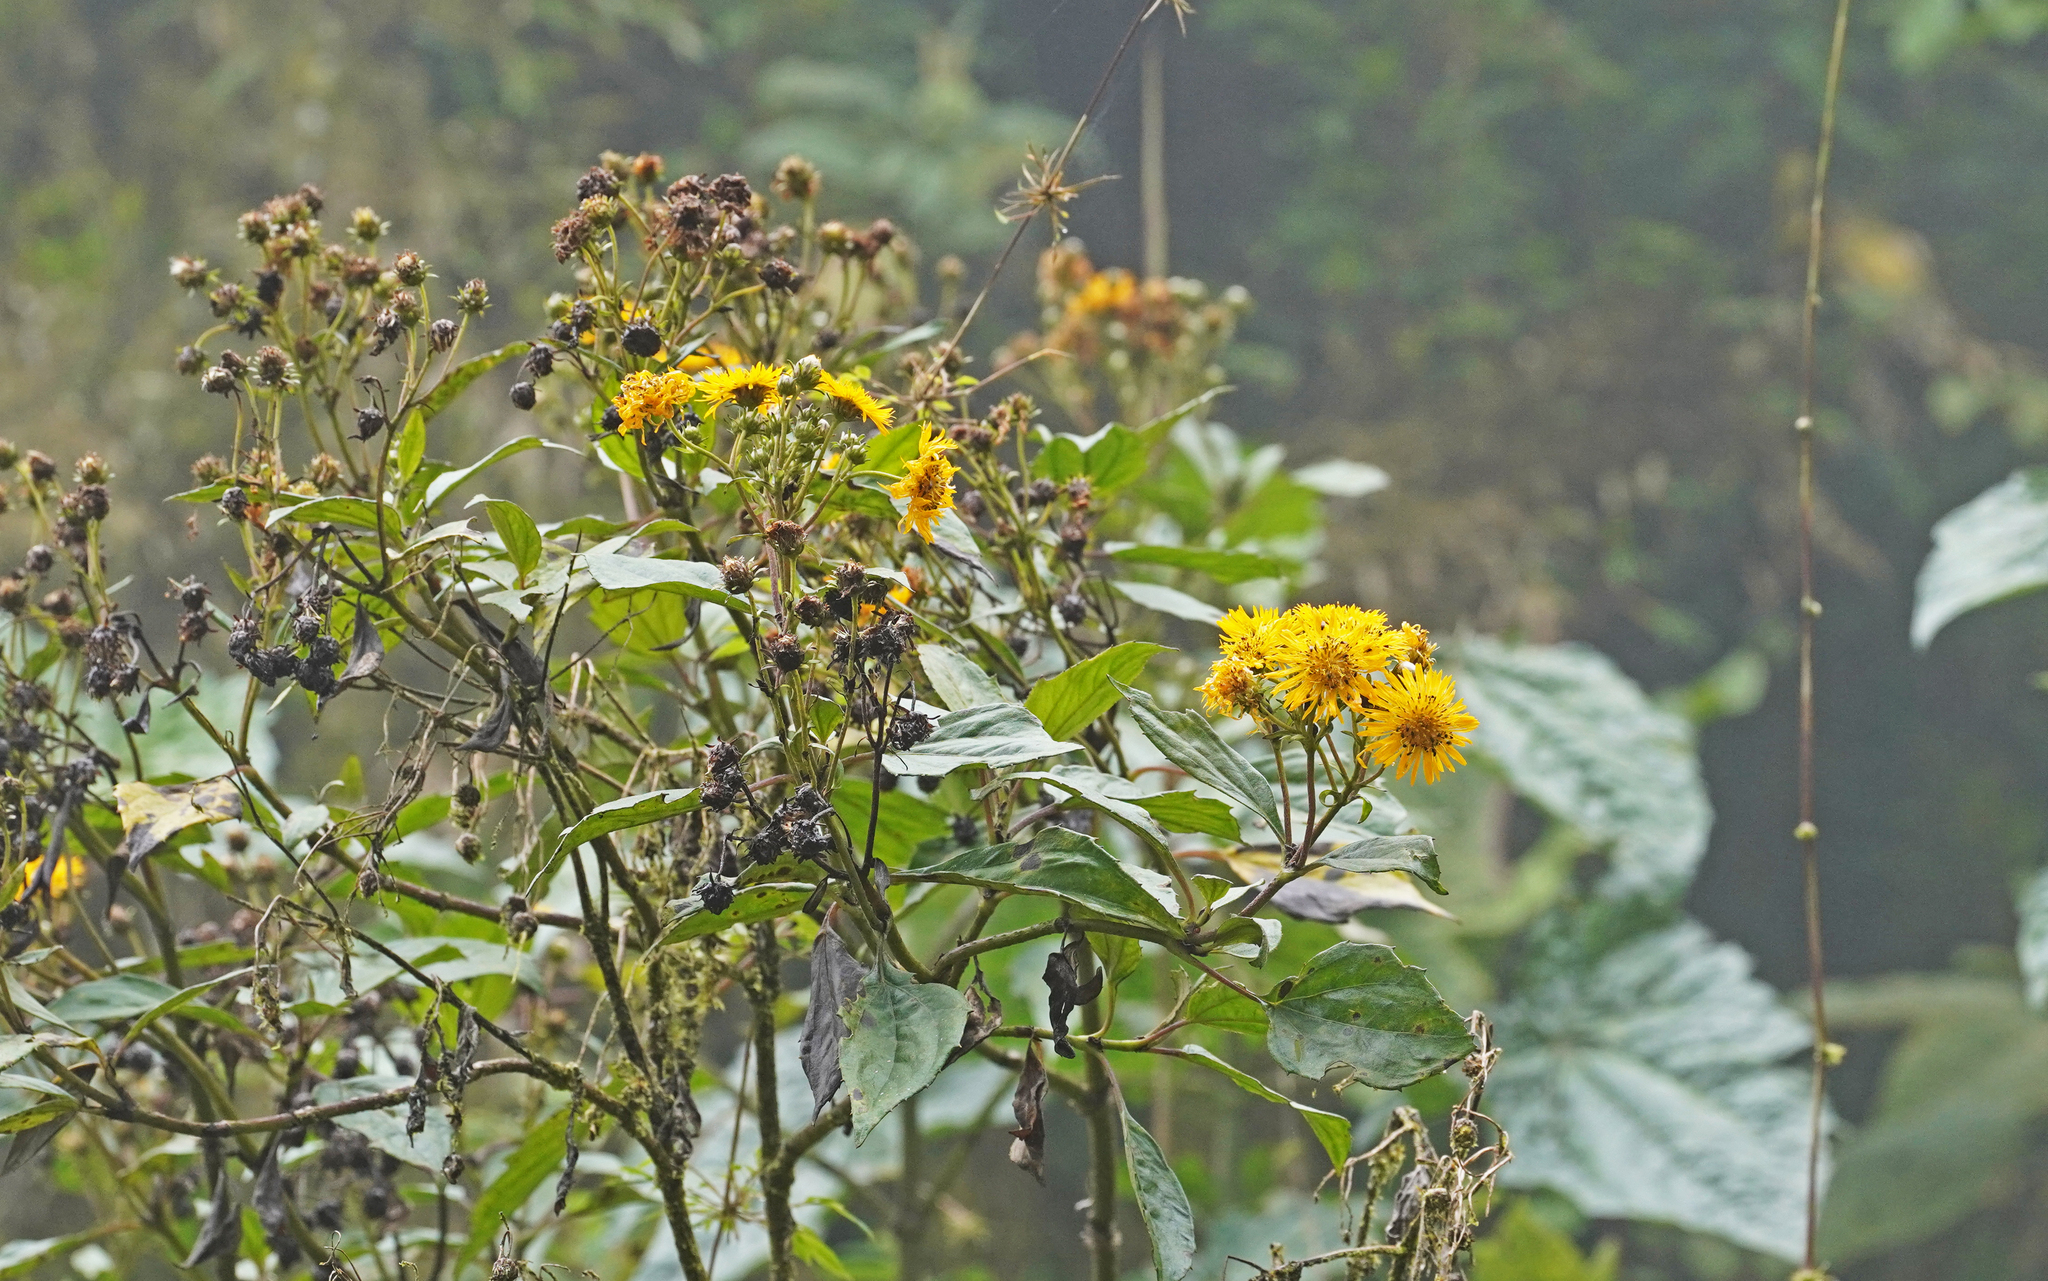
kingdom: Plantae
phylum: Tracheophyta
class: Magnoliopsida
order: Asterales
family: Asteraceae
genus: Erato
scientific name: Erato vulcanica
